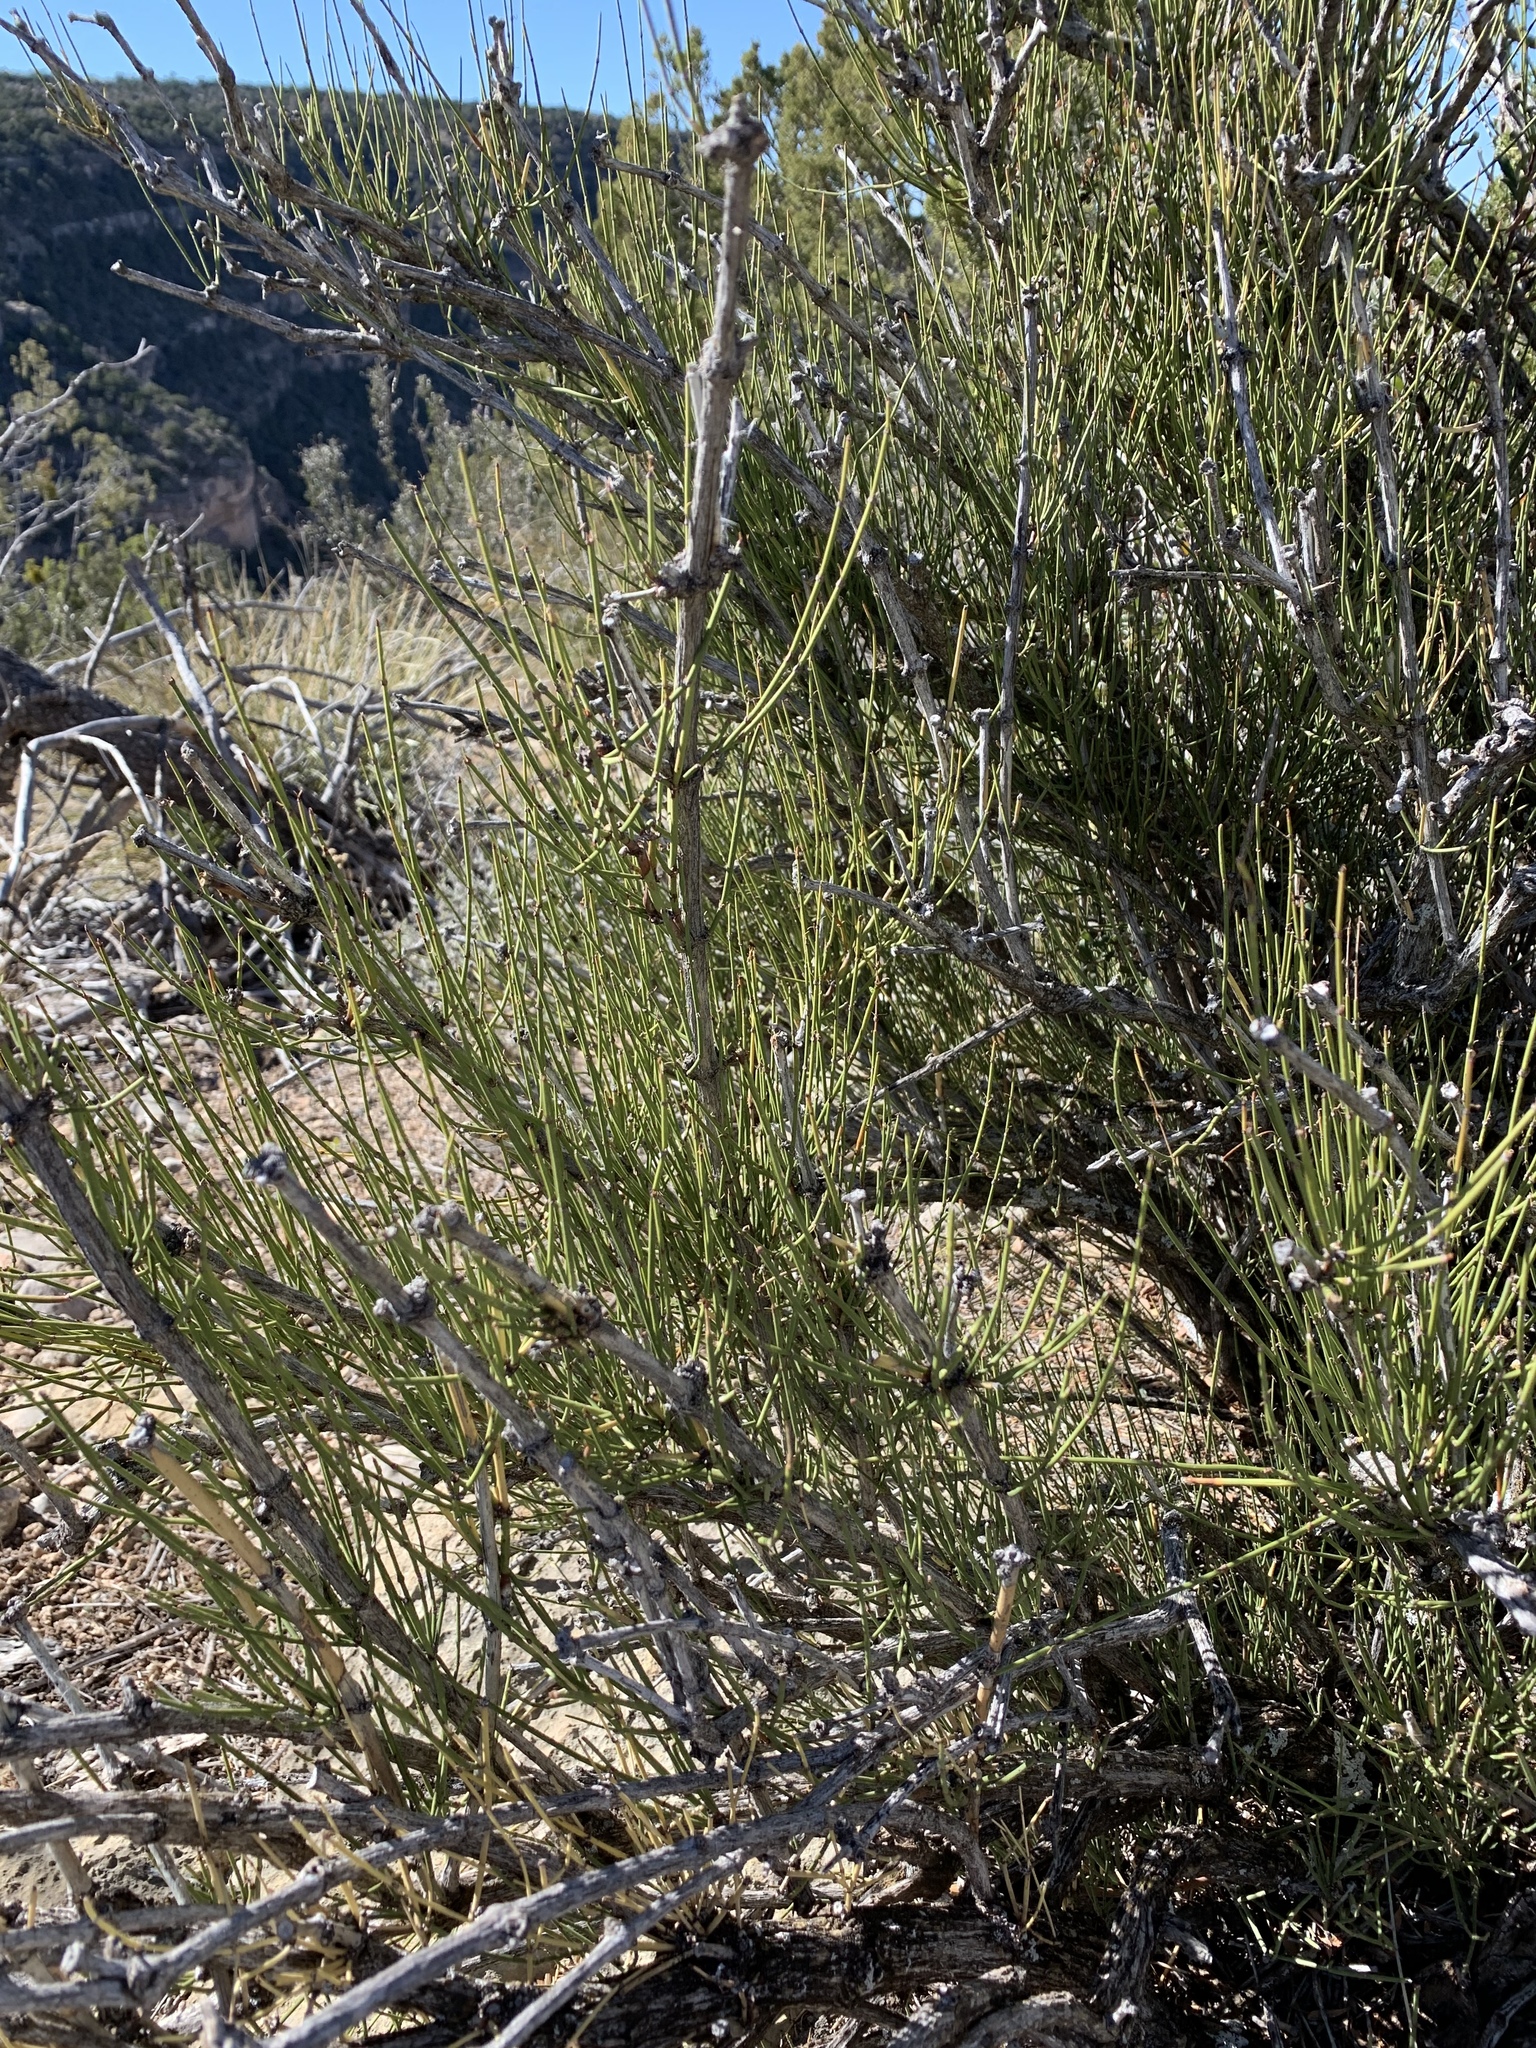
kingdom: Plantae
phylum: Tracheophyta
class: Gnetopsida
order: Ephedrales
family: Ephedraceae
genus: Ephedra
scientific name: Ephedra viridis
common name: Green ephedra
